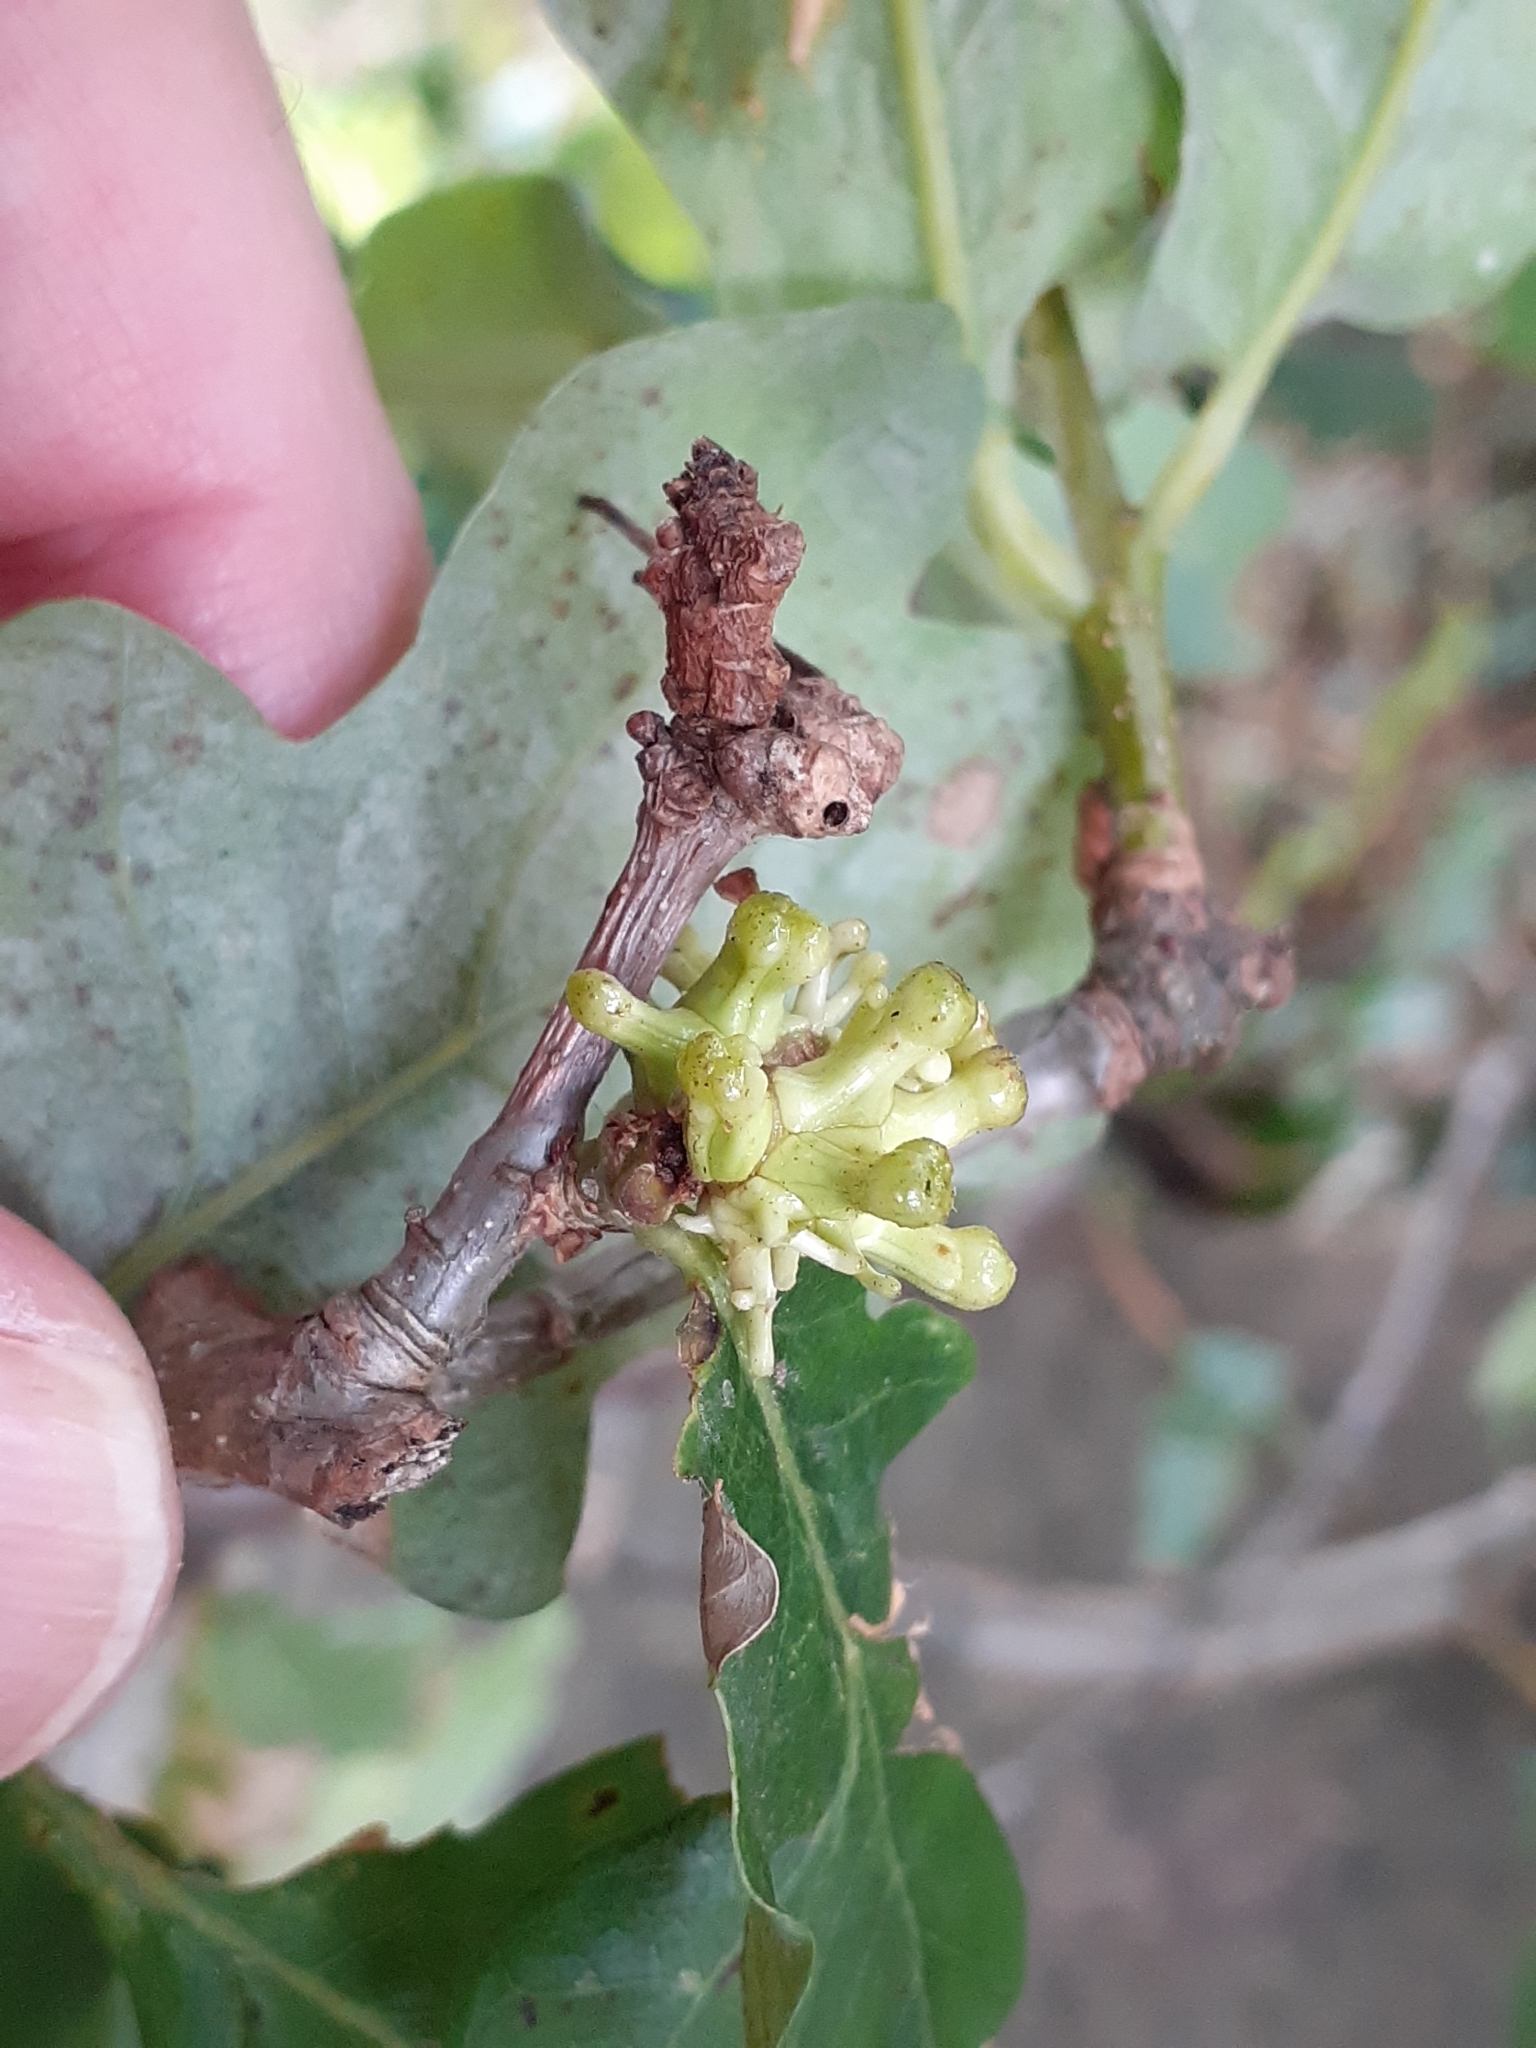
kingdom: Animalia
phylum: Arthropoda
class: Insecta
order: Hymenoptera
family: Cynipidae
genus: Andricus
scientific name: Andricus grossulariae
